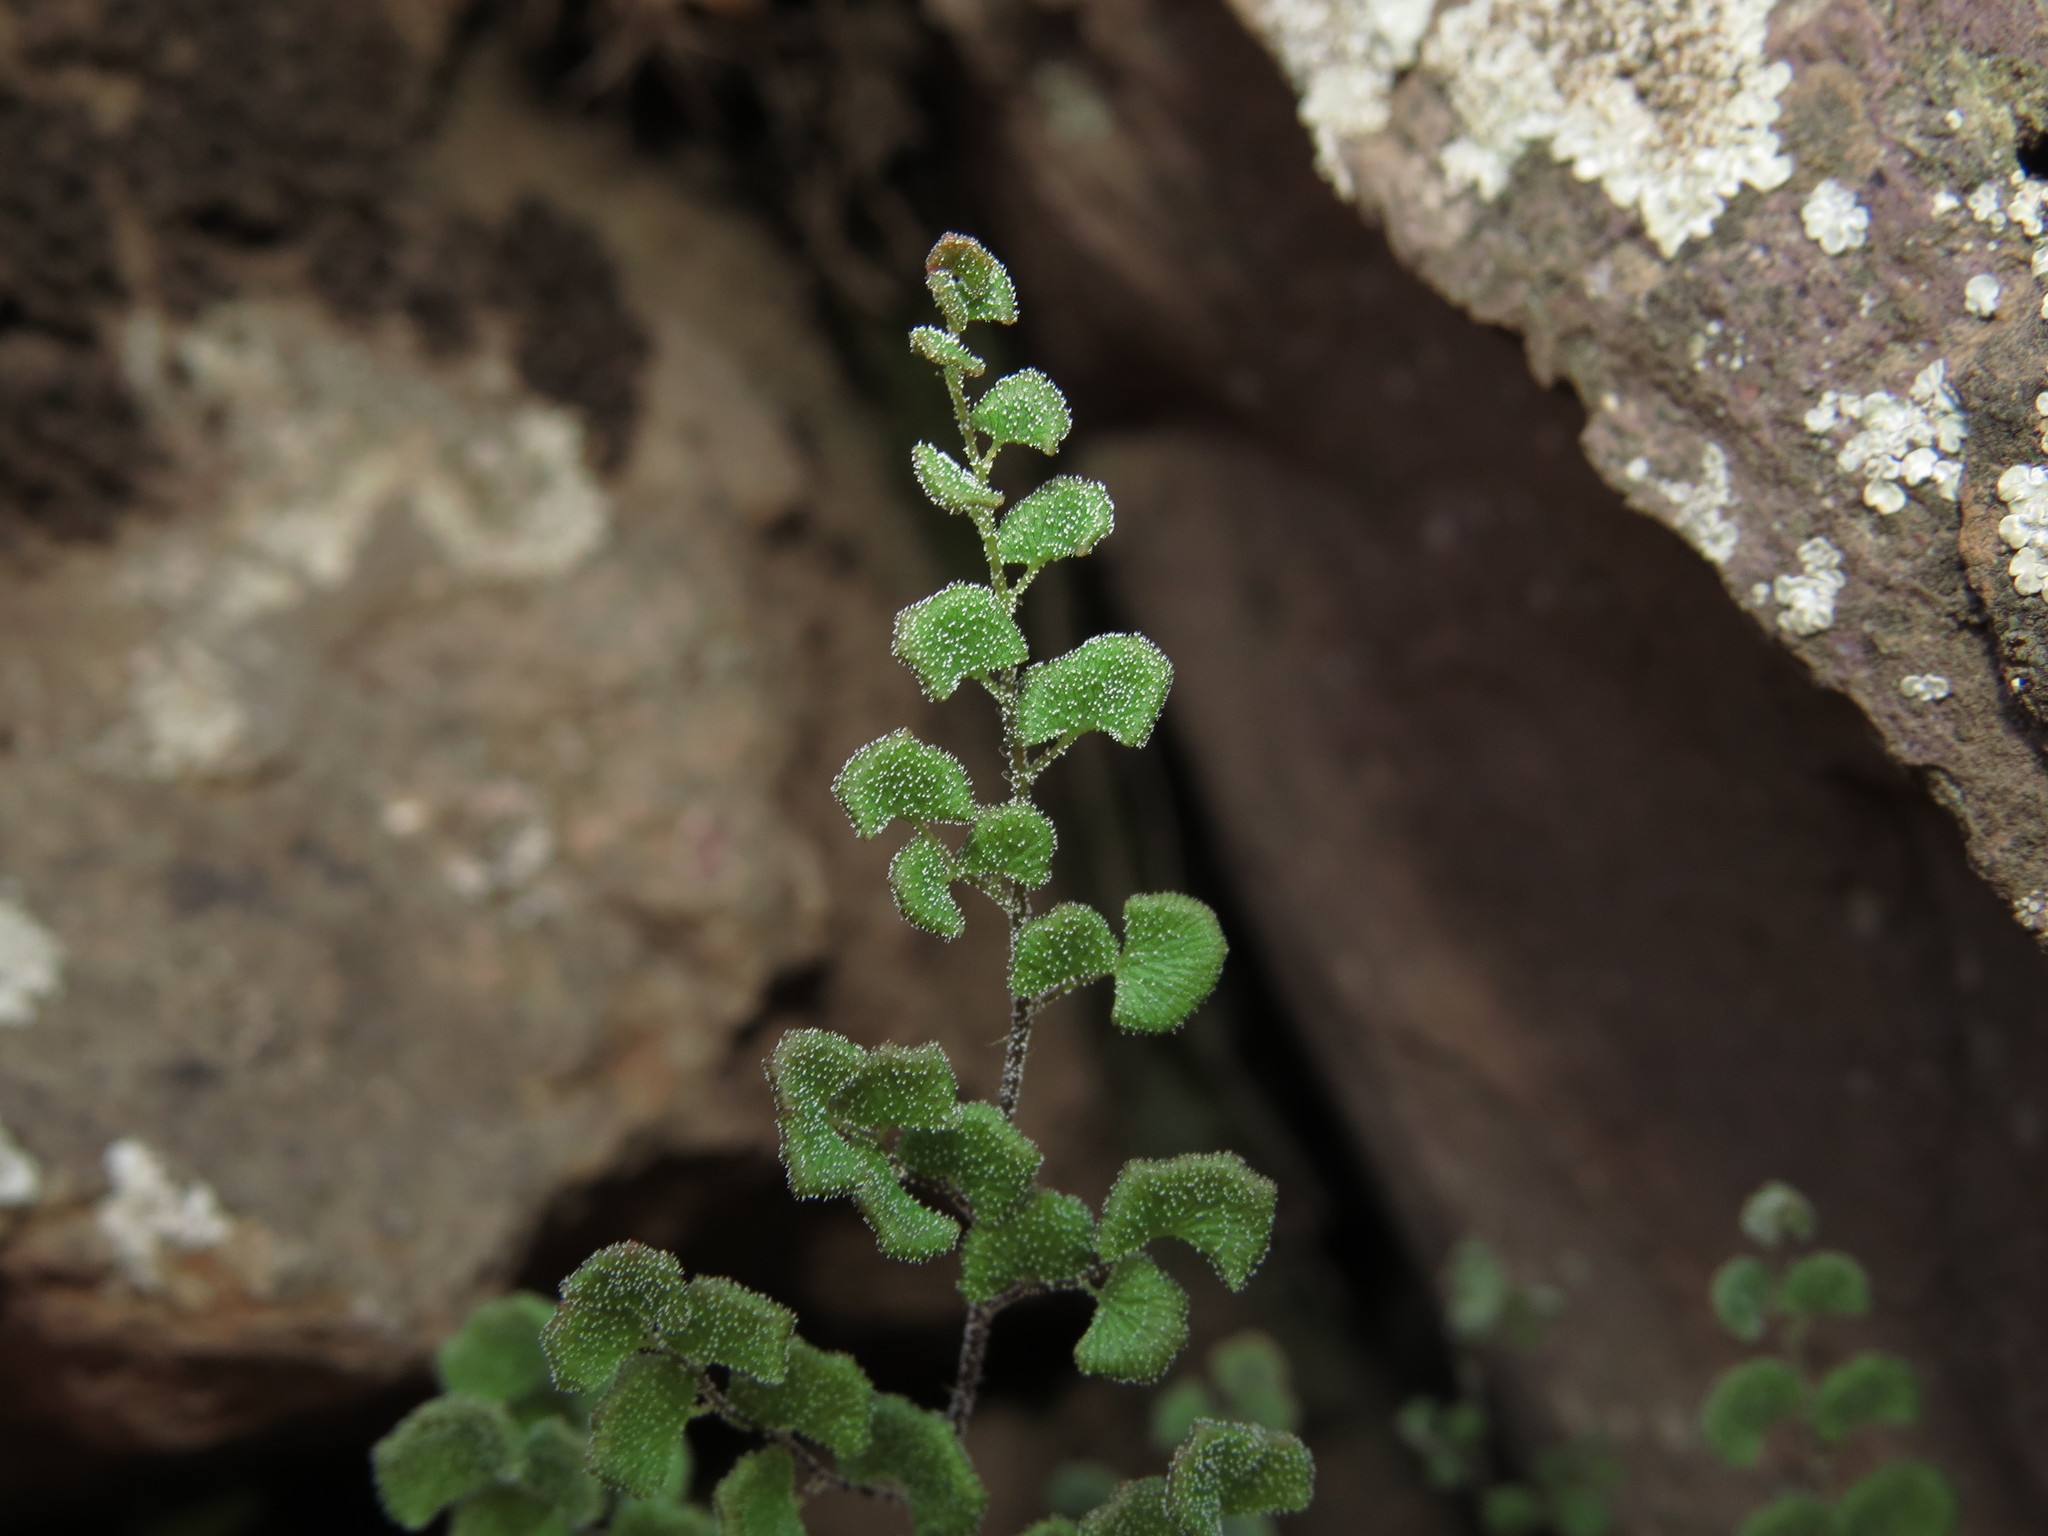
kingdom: Plantae
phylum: Tracheophyta
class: Polypodiopsida
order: Polypodiales
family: Pteridaceae
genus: Adiantum
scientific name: Adiantum chilense
